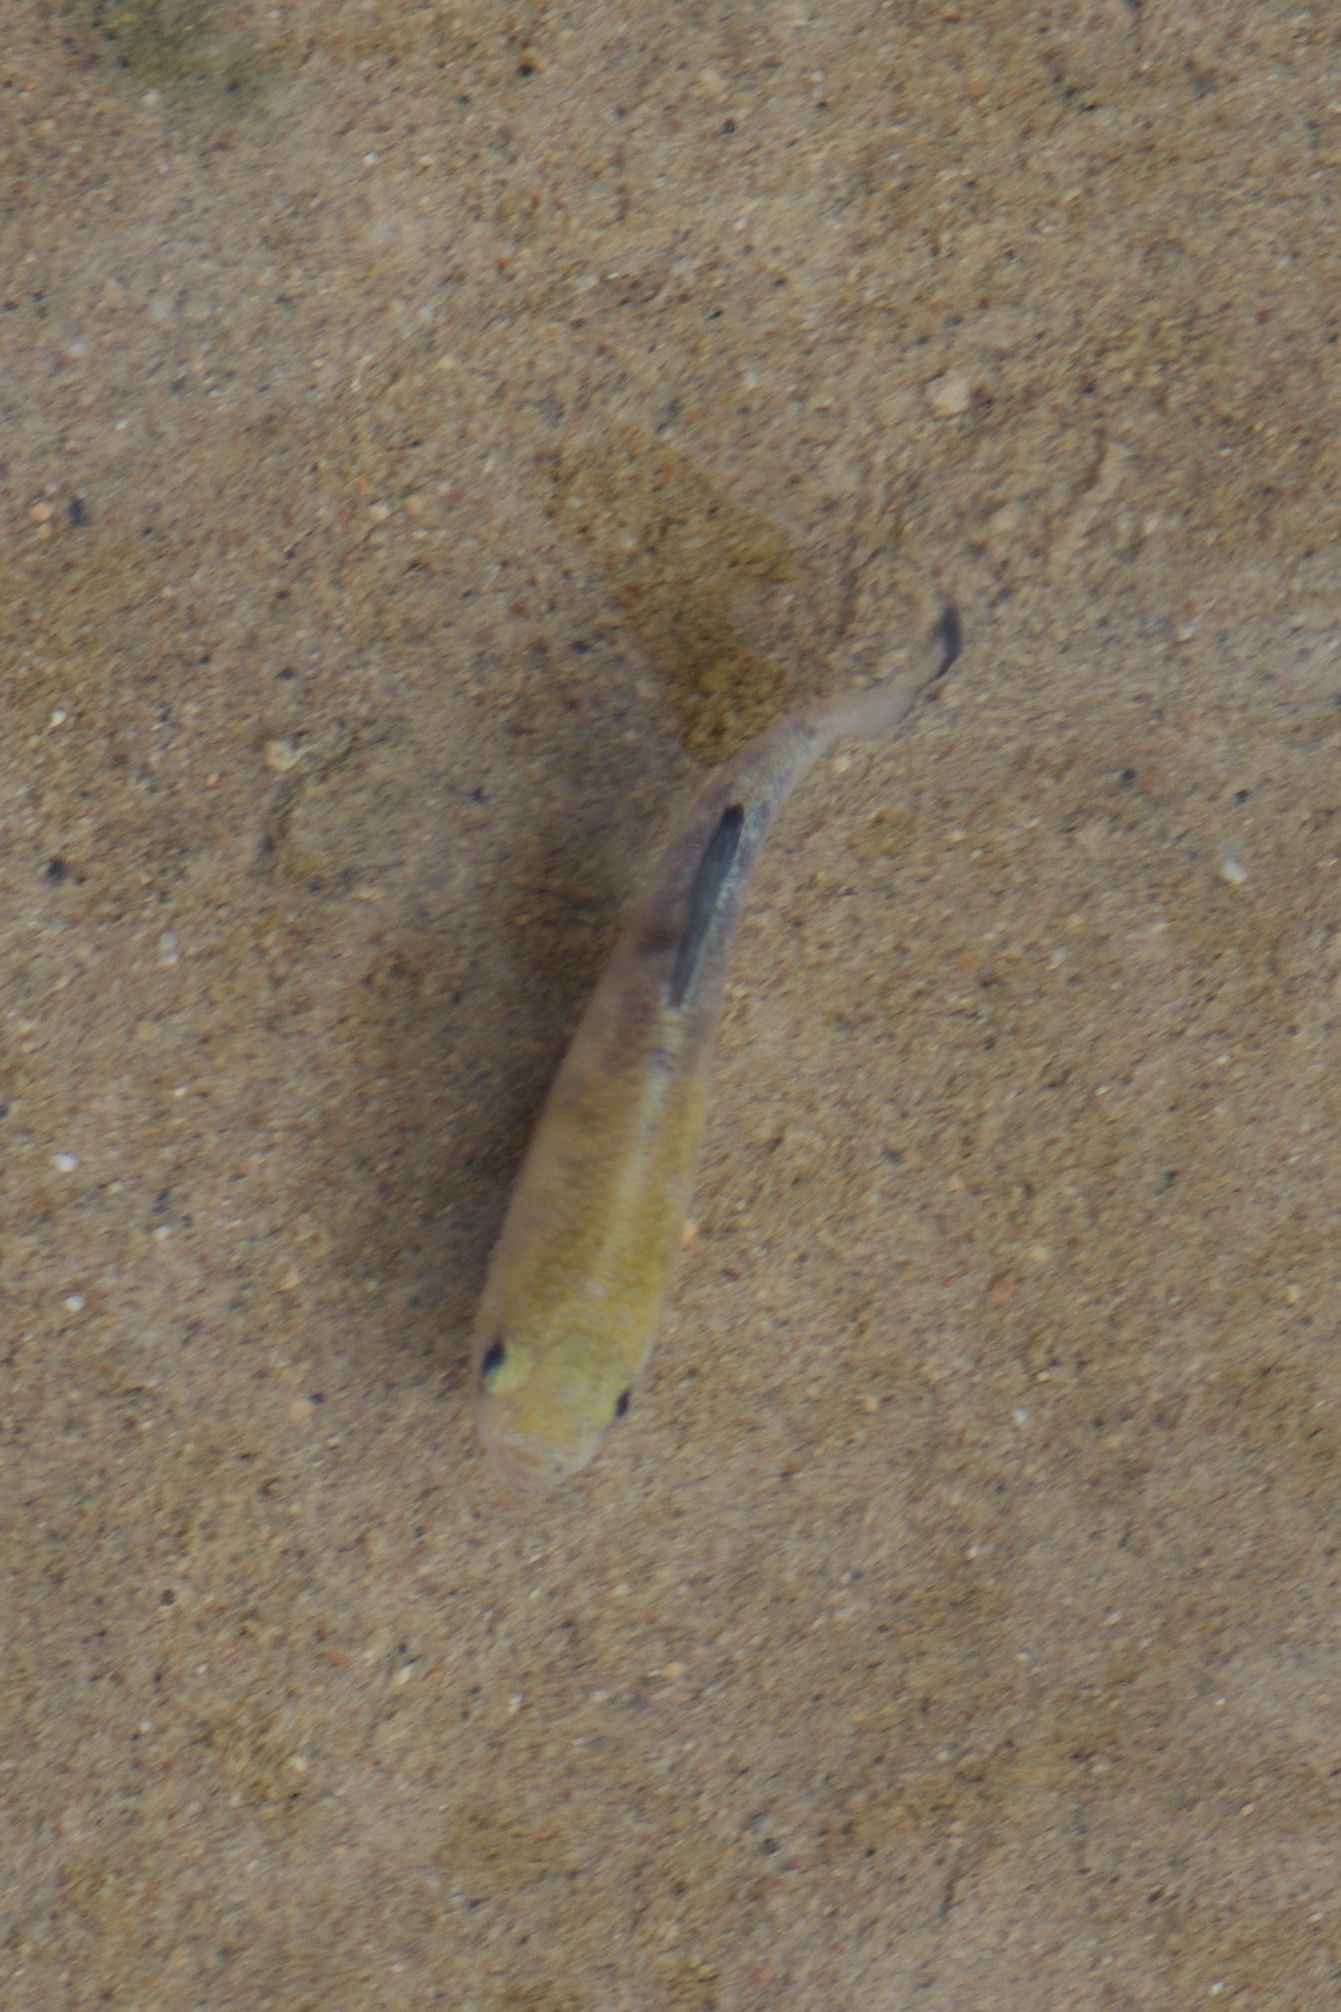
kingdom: Animalia
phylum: Chordata
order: Cyprinodontiformes
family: Cyprinodontidae
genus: Cyprinodon
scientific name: Cyprinodon salinus
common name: Cottonball marsh pupfish
